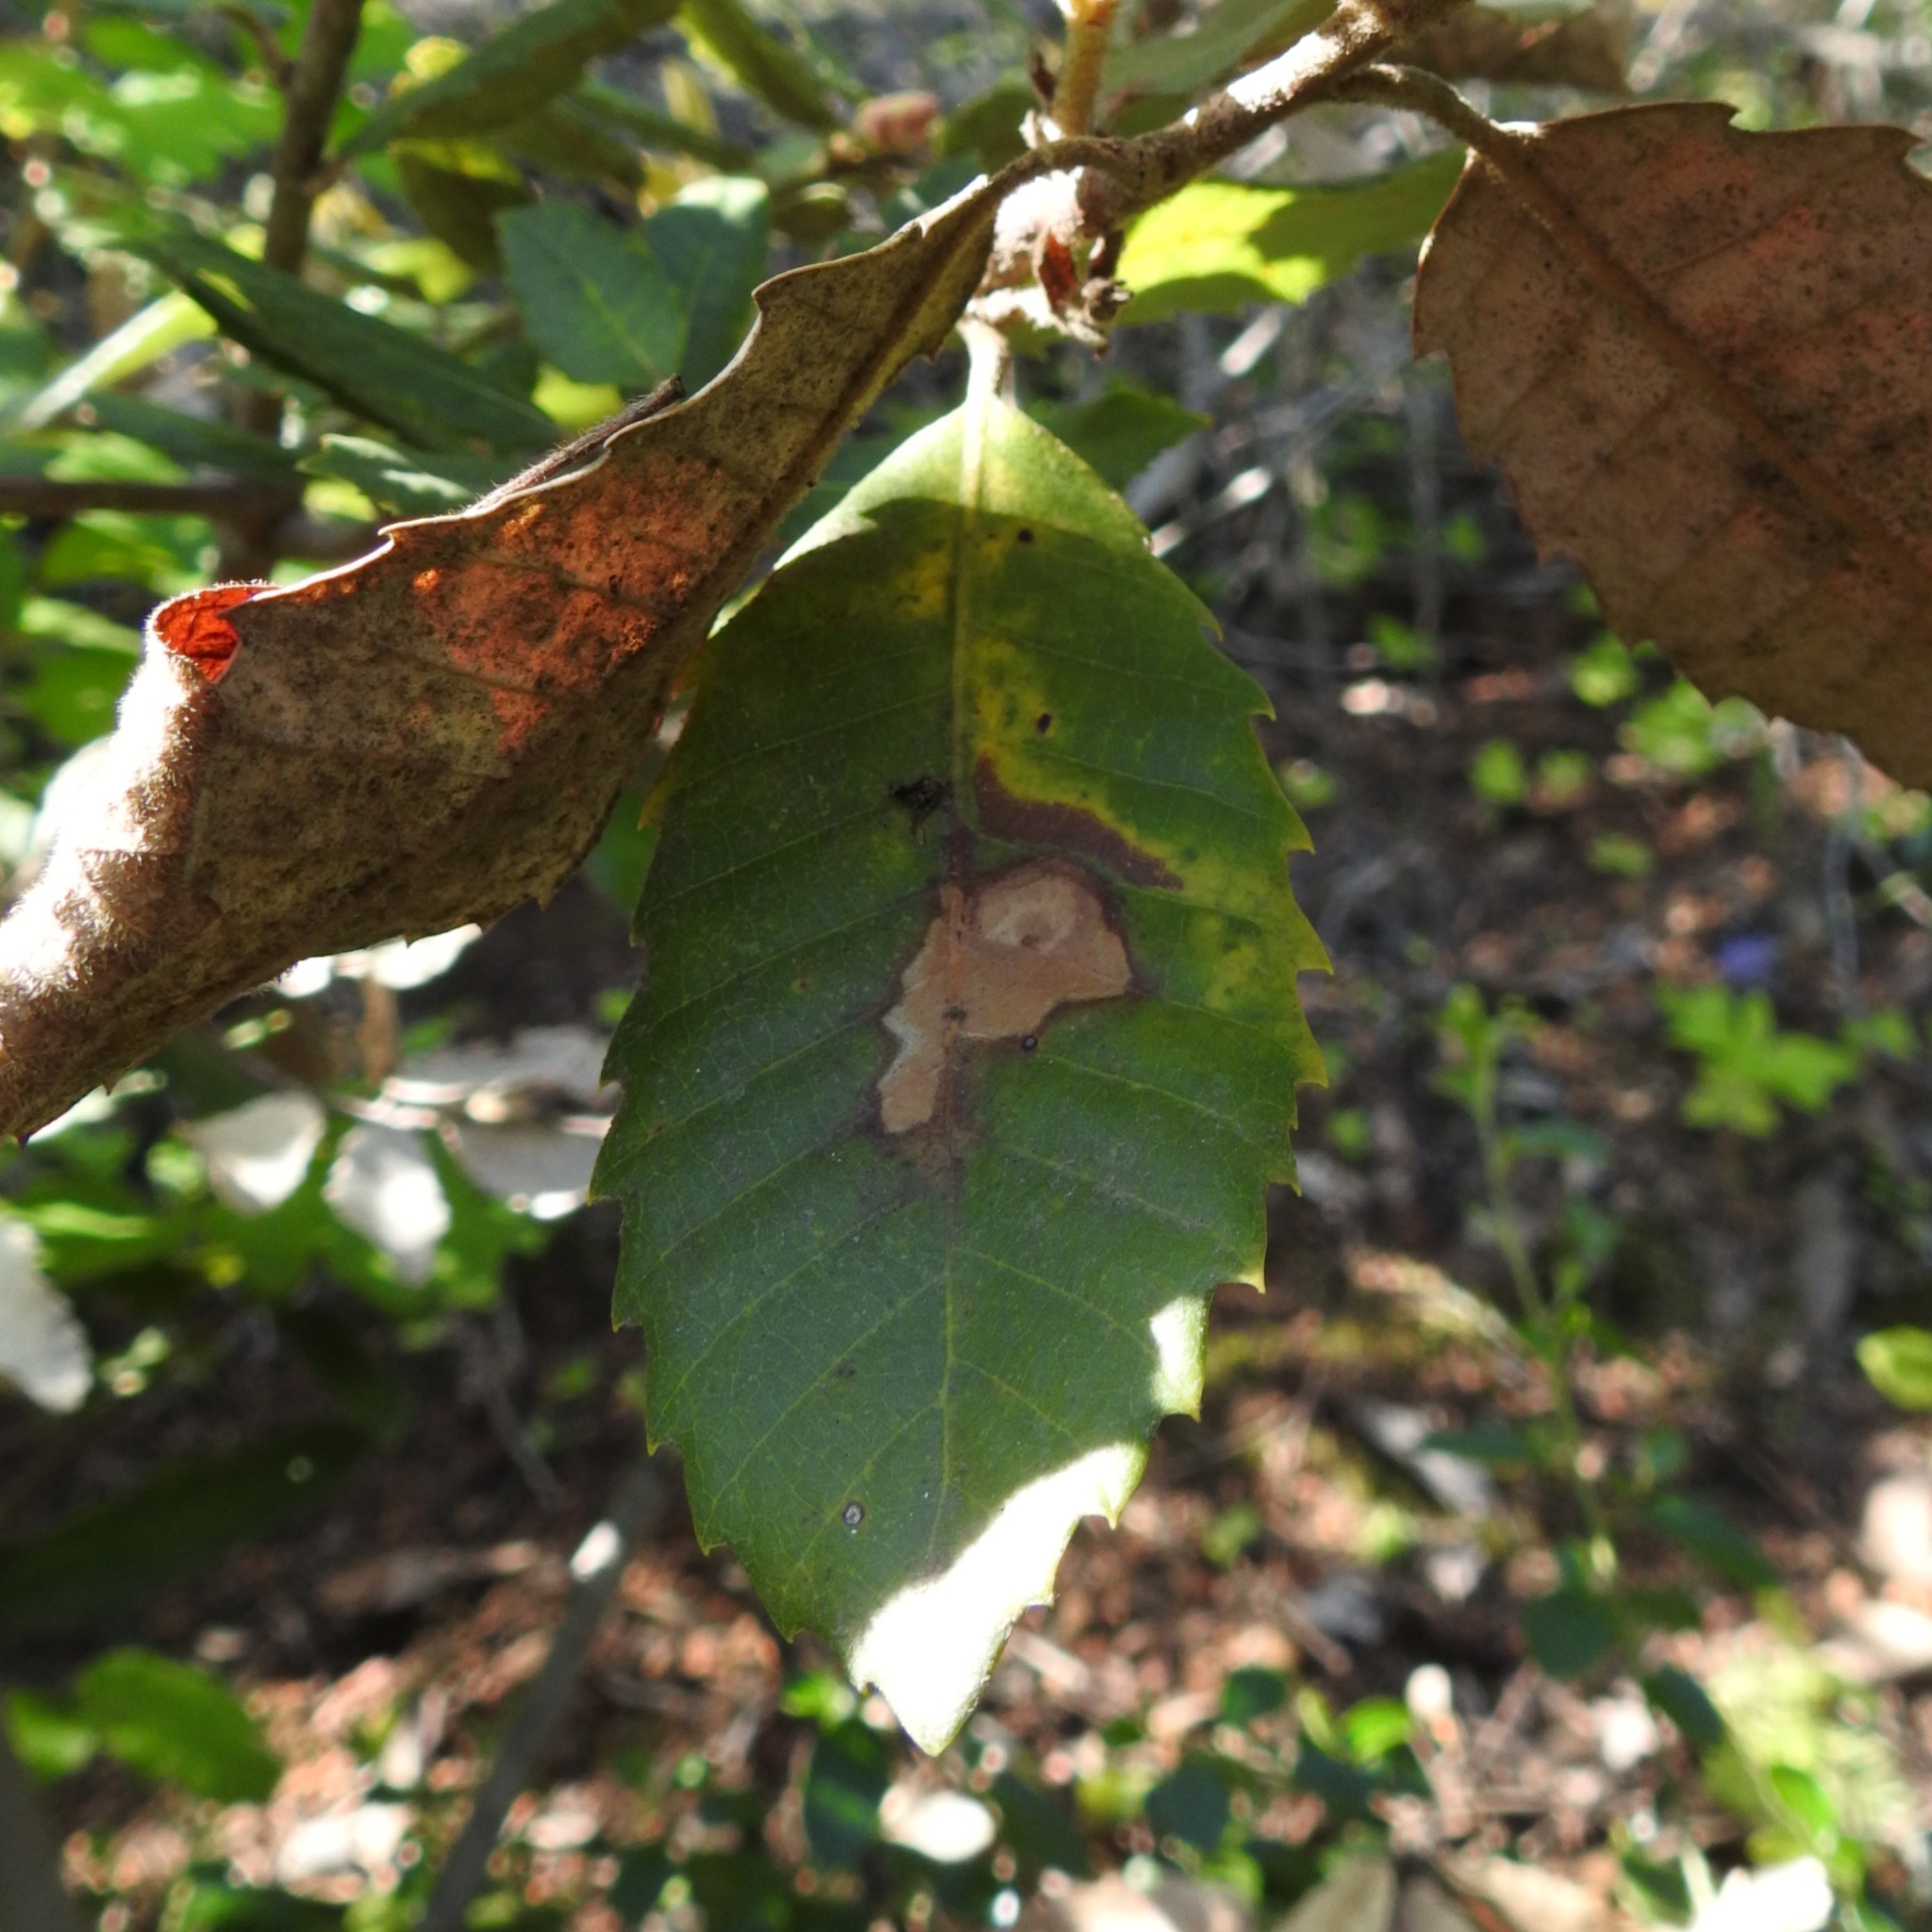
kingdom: Plantae
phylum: Tracheophyta
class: Magnoliopsida
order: Fagales
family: Fagaceae
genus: Notholithocarpus
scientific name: Notholithocarpus densiflorus
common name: Tan bark oak
